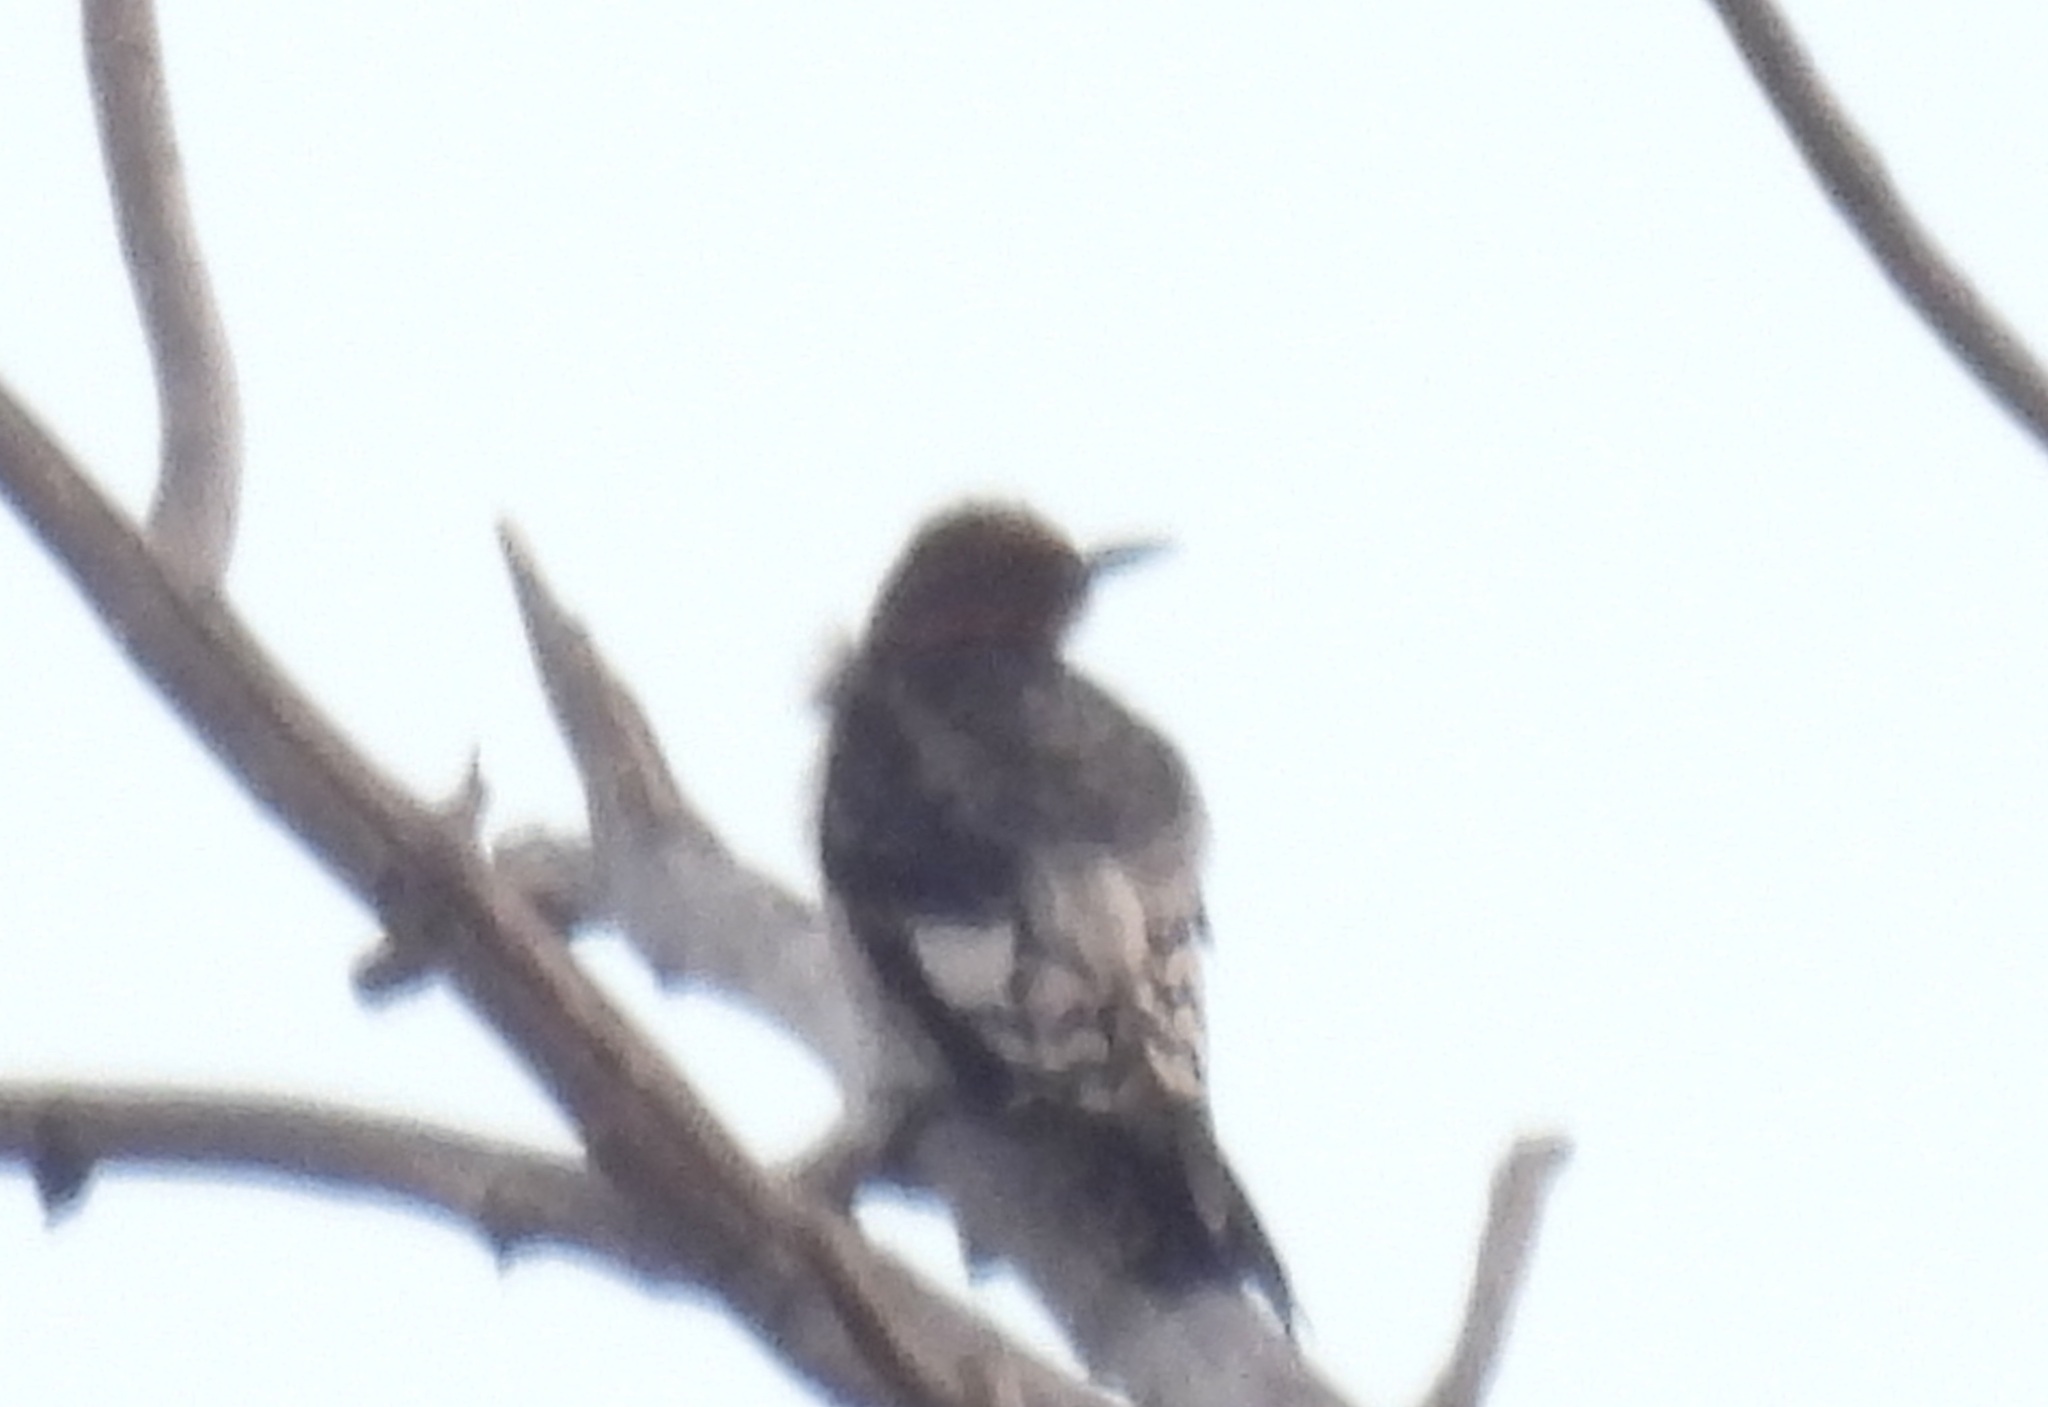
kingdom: Animalia
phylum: Chordata
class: Aves
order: Piciformes
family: Picidae
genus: Melanerpes
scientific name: Melanerpes erythrocephalus
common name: Red-headed woodpecker
